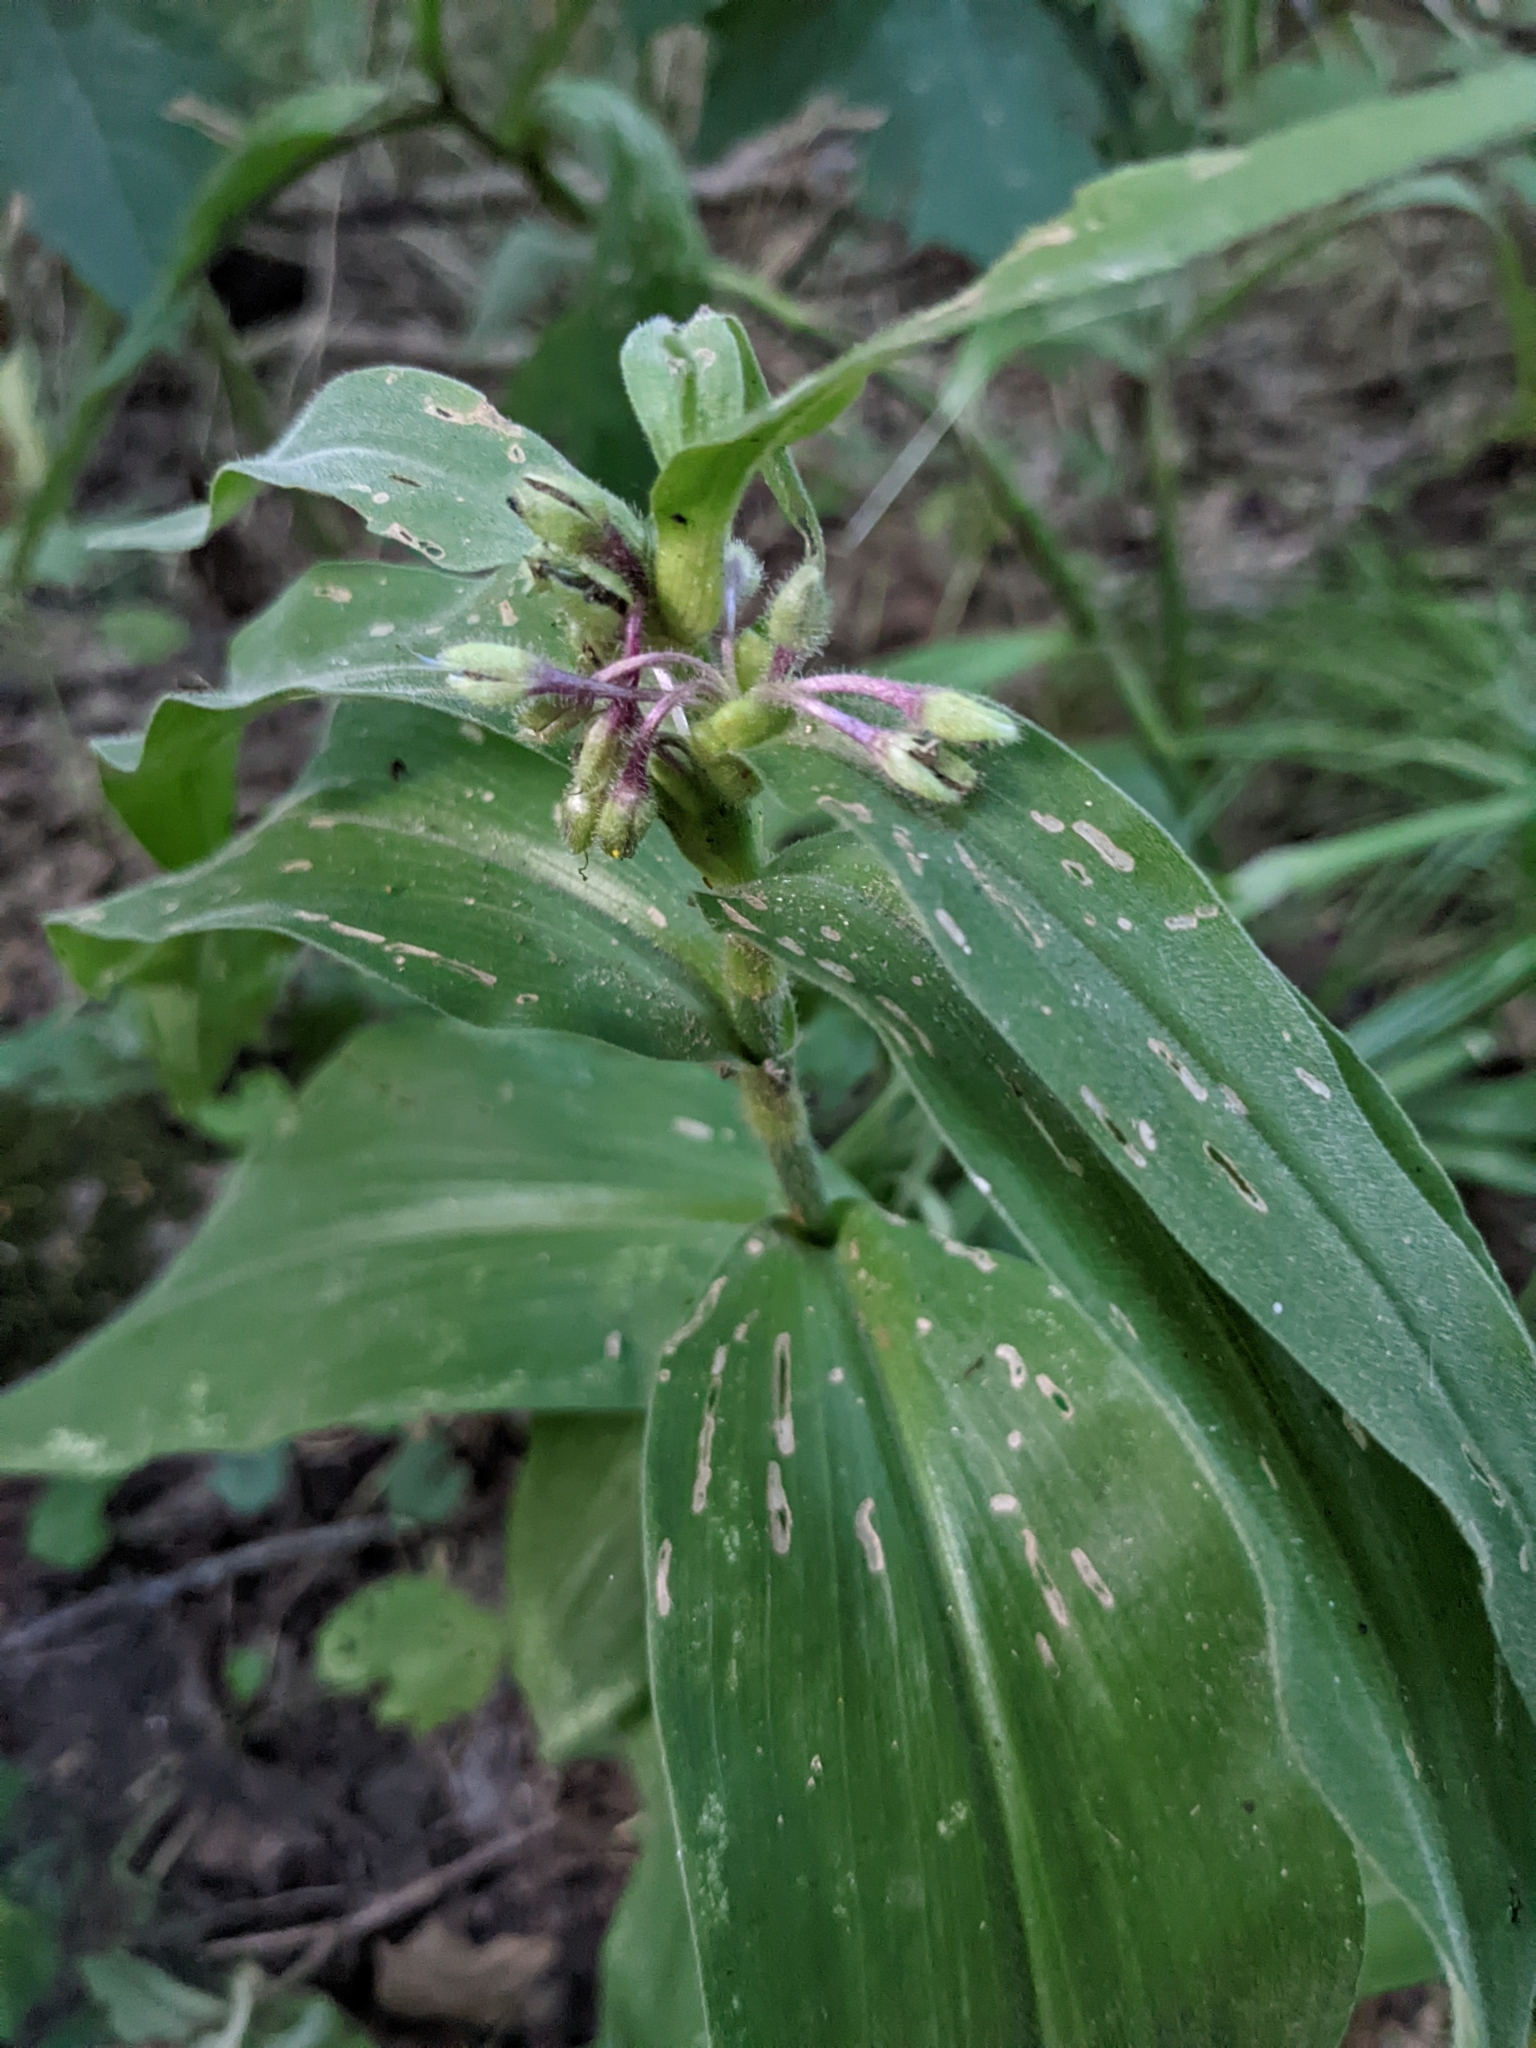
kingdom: Plantae
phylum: Tracheophyta
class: Liliopsida
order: Commelinales
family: Commelinaceae
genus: Tradescantia
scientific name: Tradescantia subaspera
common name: Wide-leaf spiderwort
